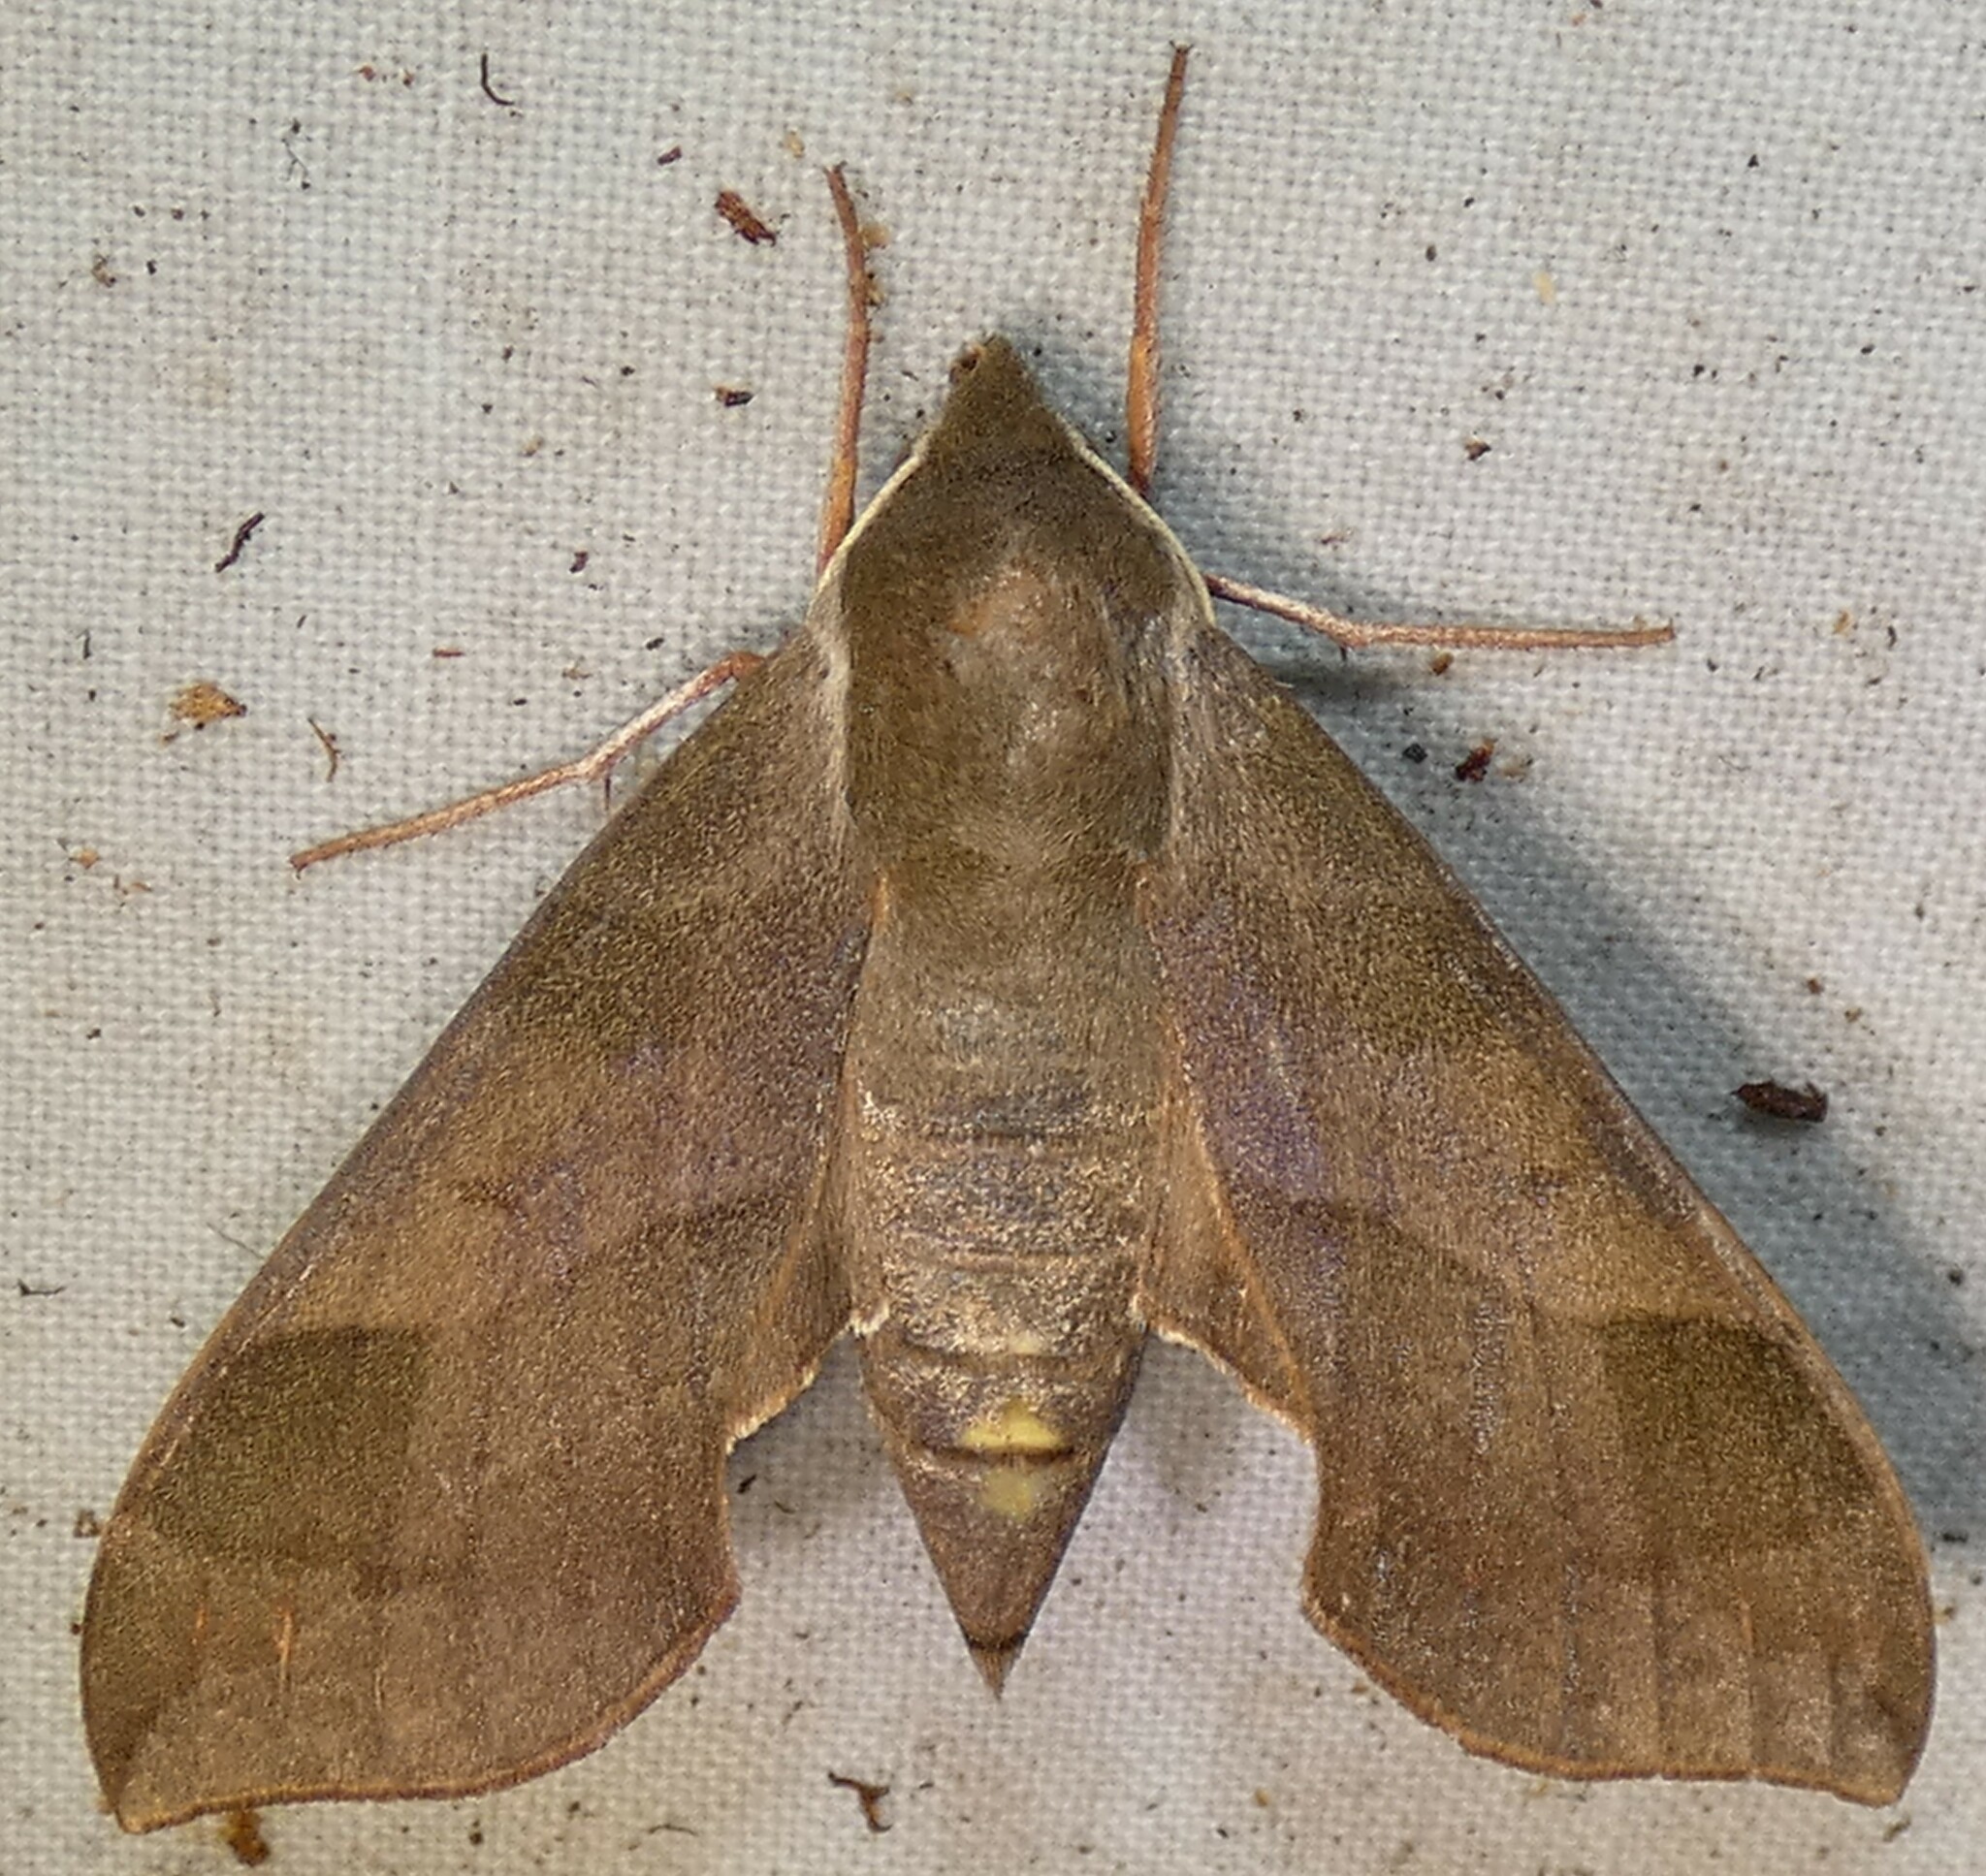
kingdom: Animalia
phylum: Arthropoda
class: Insecta
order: Lepidoptera
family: Sphingidae
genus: Darapsa
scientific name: Darapsa myron
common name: Hog sphinx
